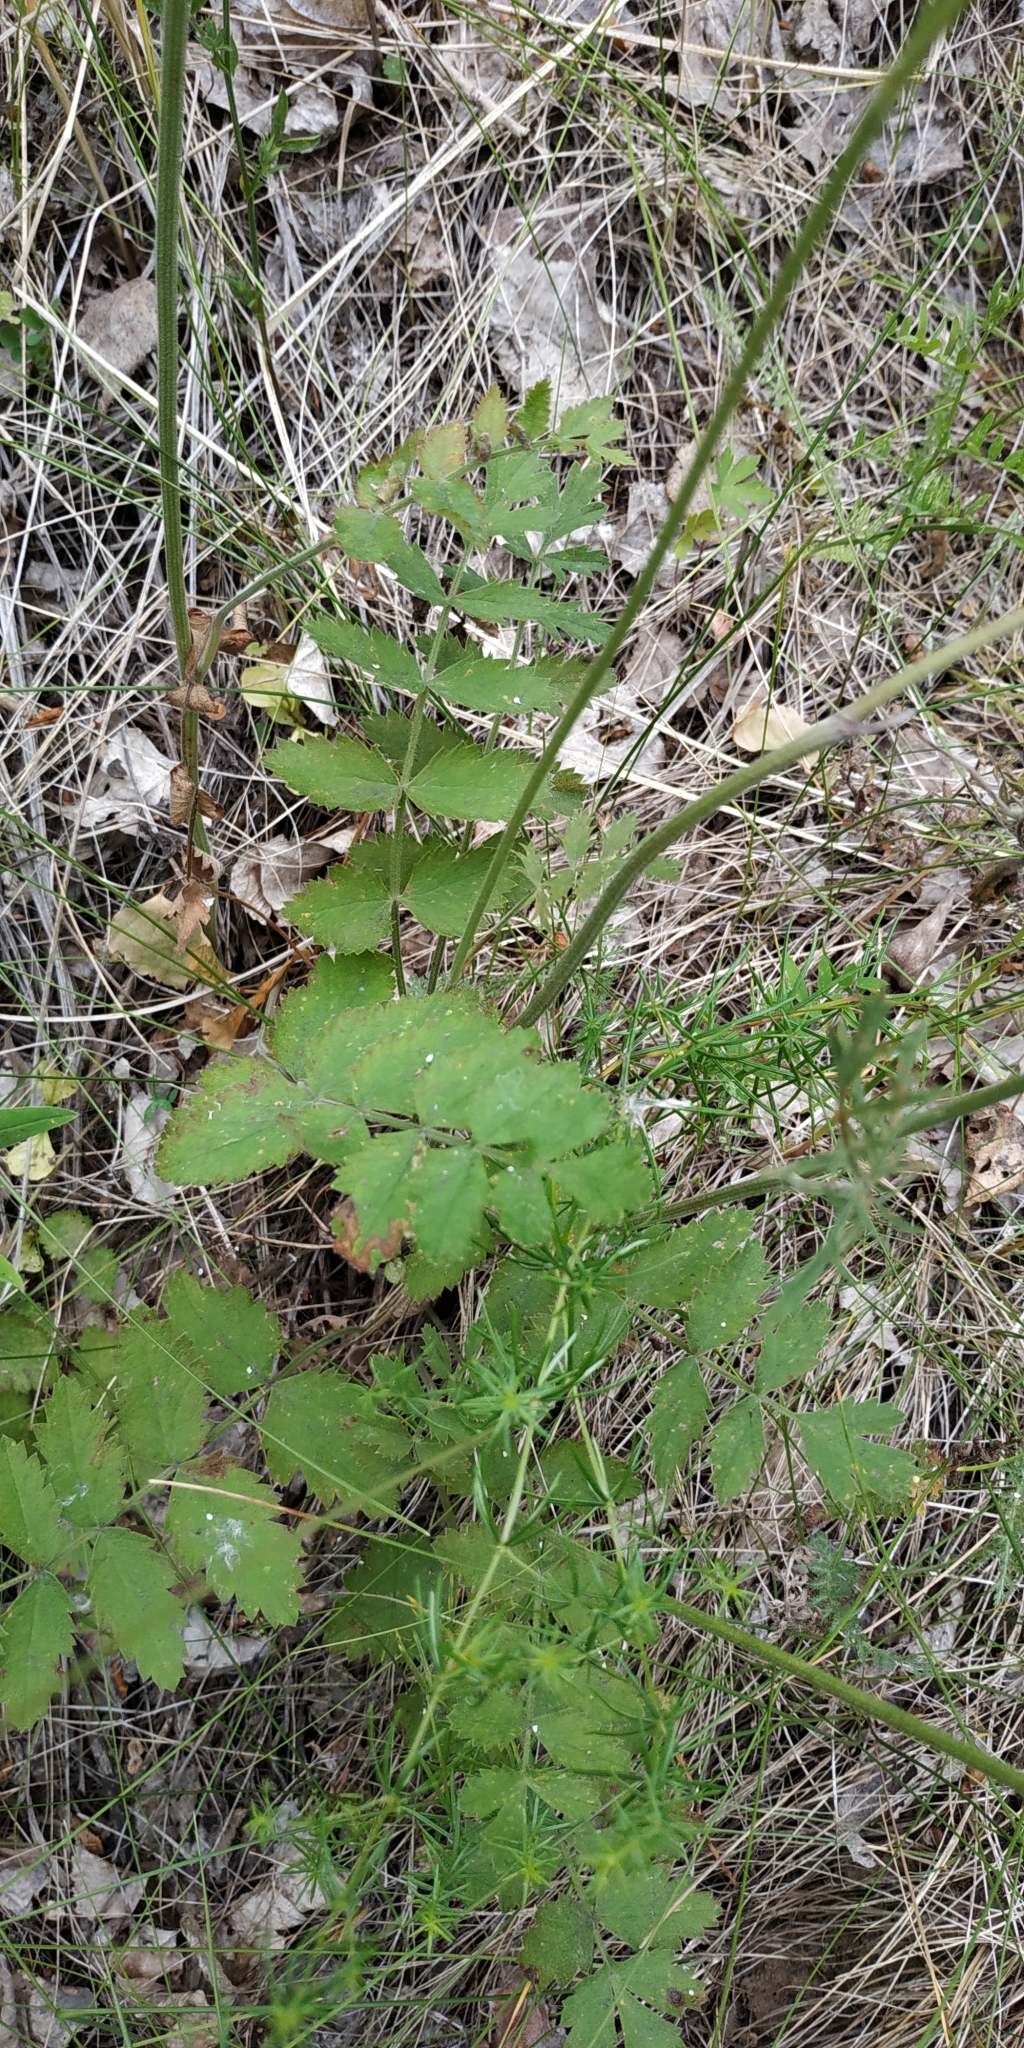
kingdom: Plantae
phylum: Tracheophyta
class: Magnoliopsida
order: Apiales
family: Apiaceae
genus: Pimpinella
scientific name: Pimpinella saxifraga
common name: Burnet-saxifrage
